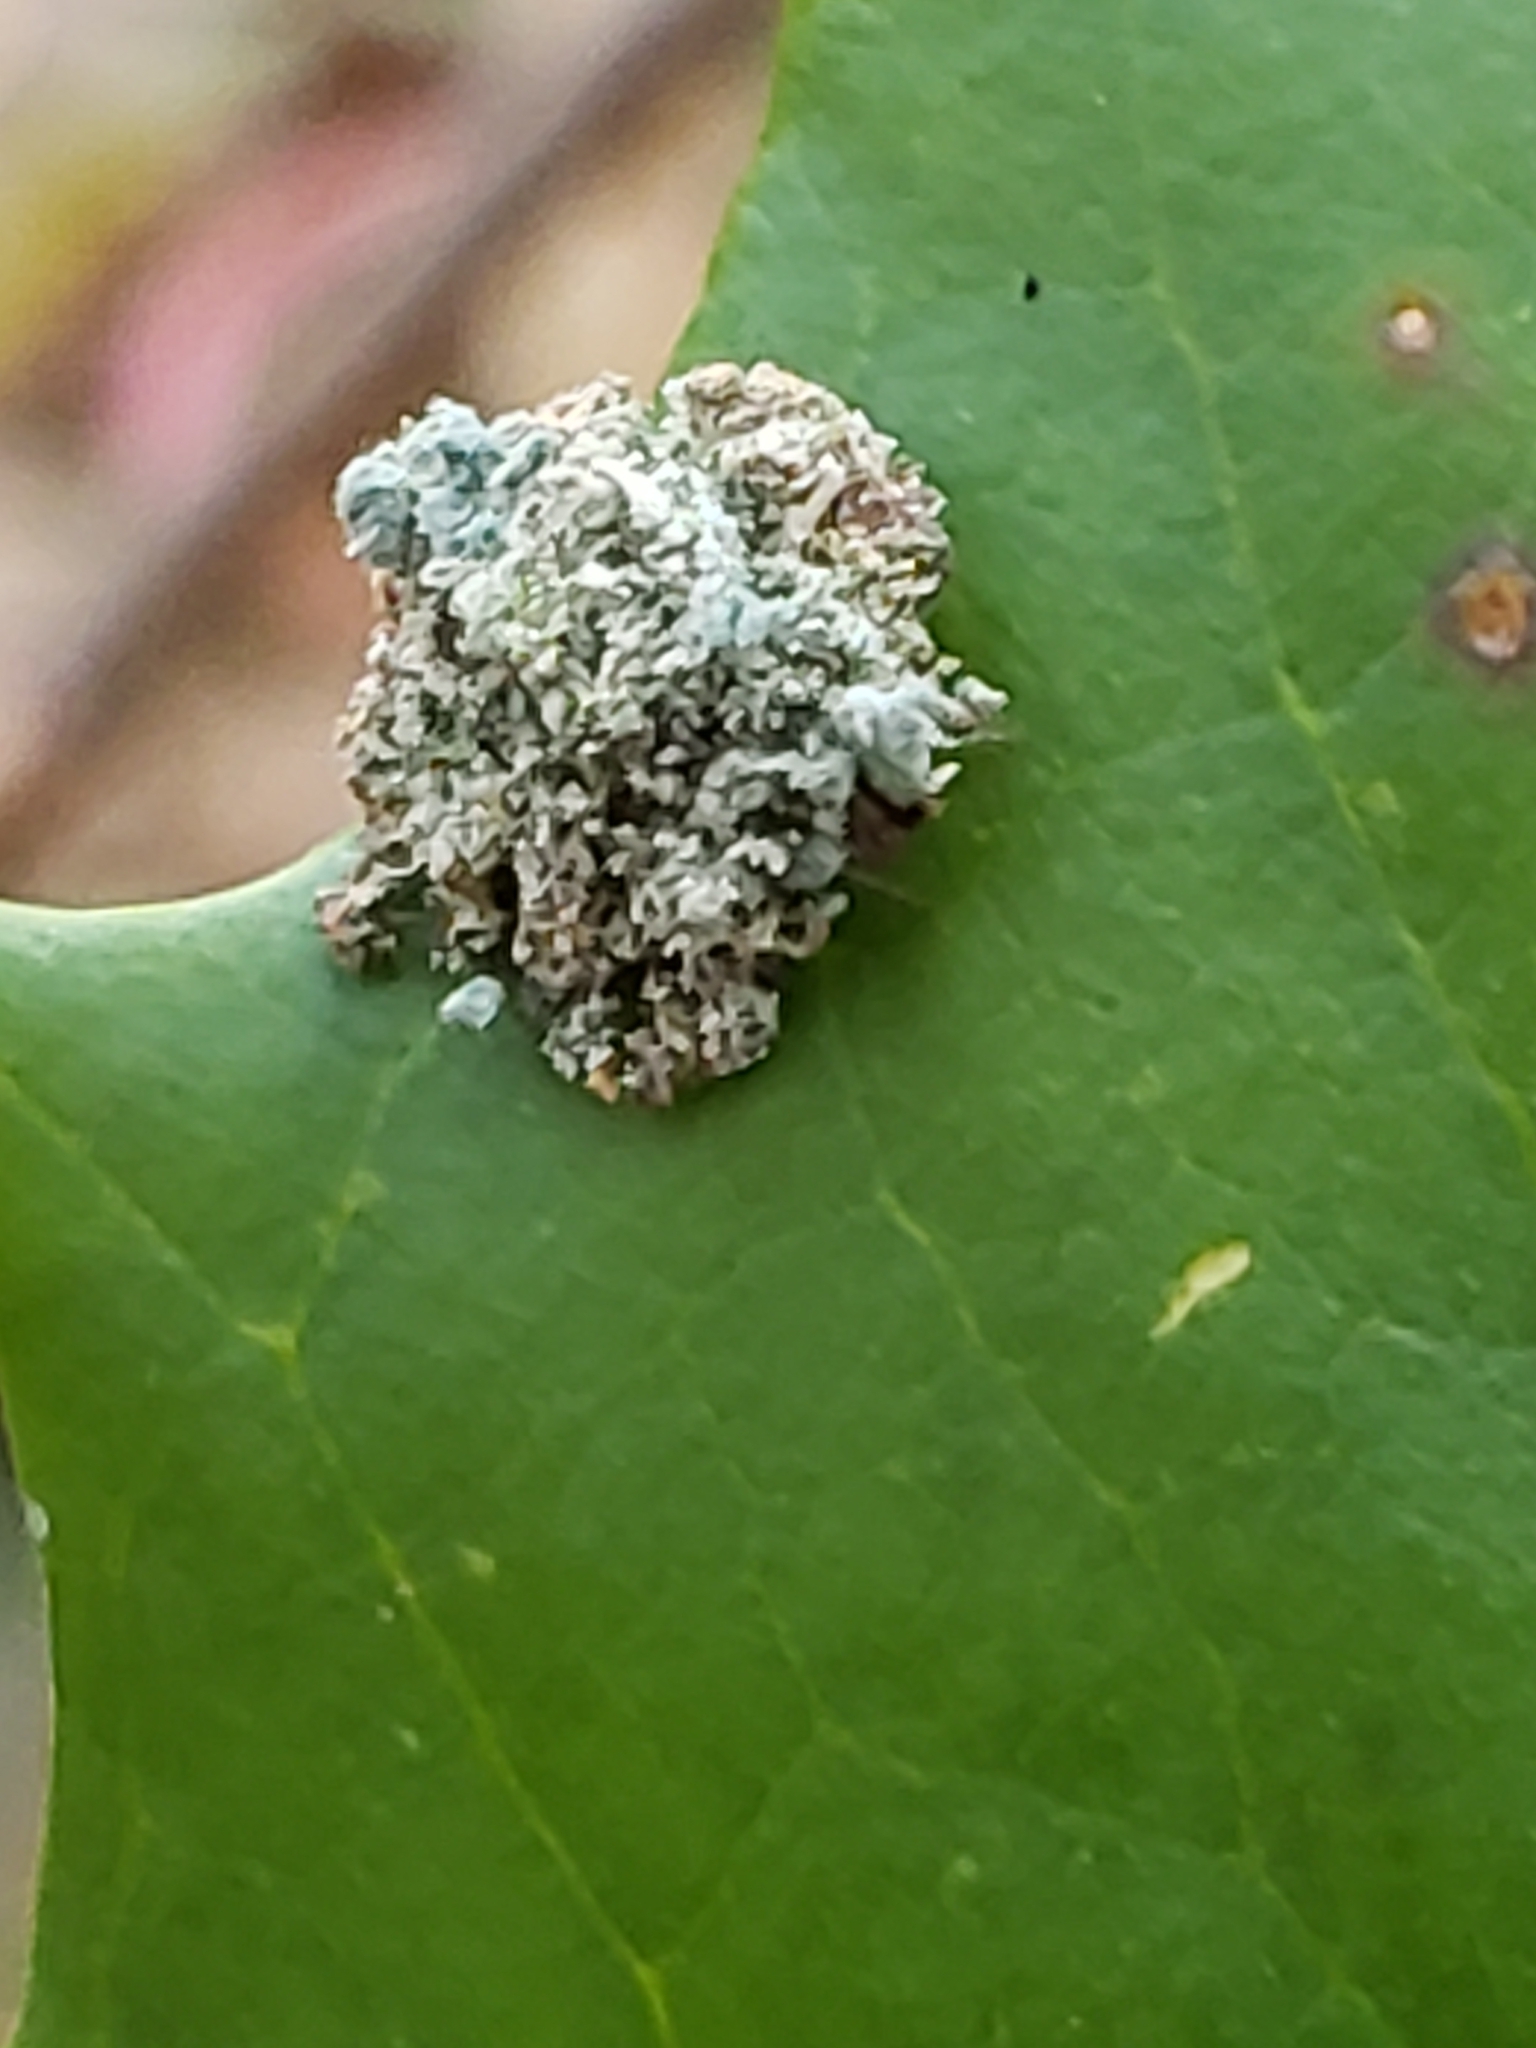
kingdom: Animalia
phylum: Arthropoda
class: Insecta
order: Neuroptera
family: Chrysopidae
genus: Leucochrysa
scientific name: Leucochrysa pavida
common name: Lichen-carrying green lacewing
